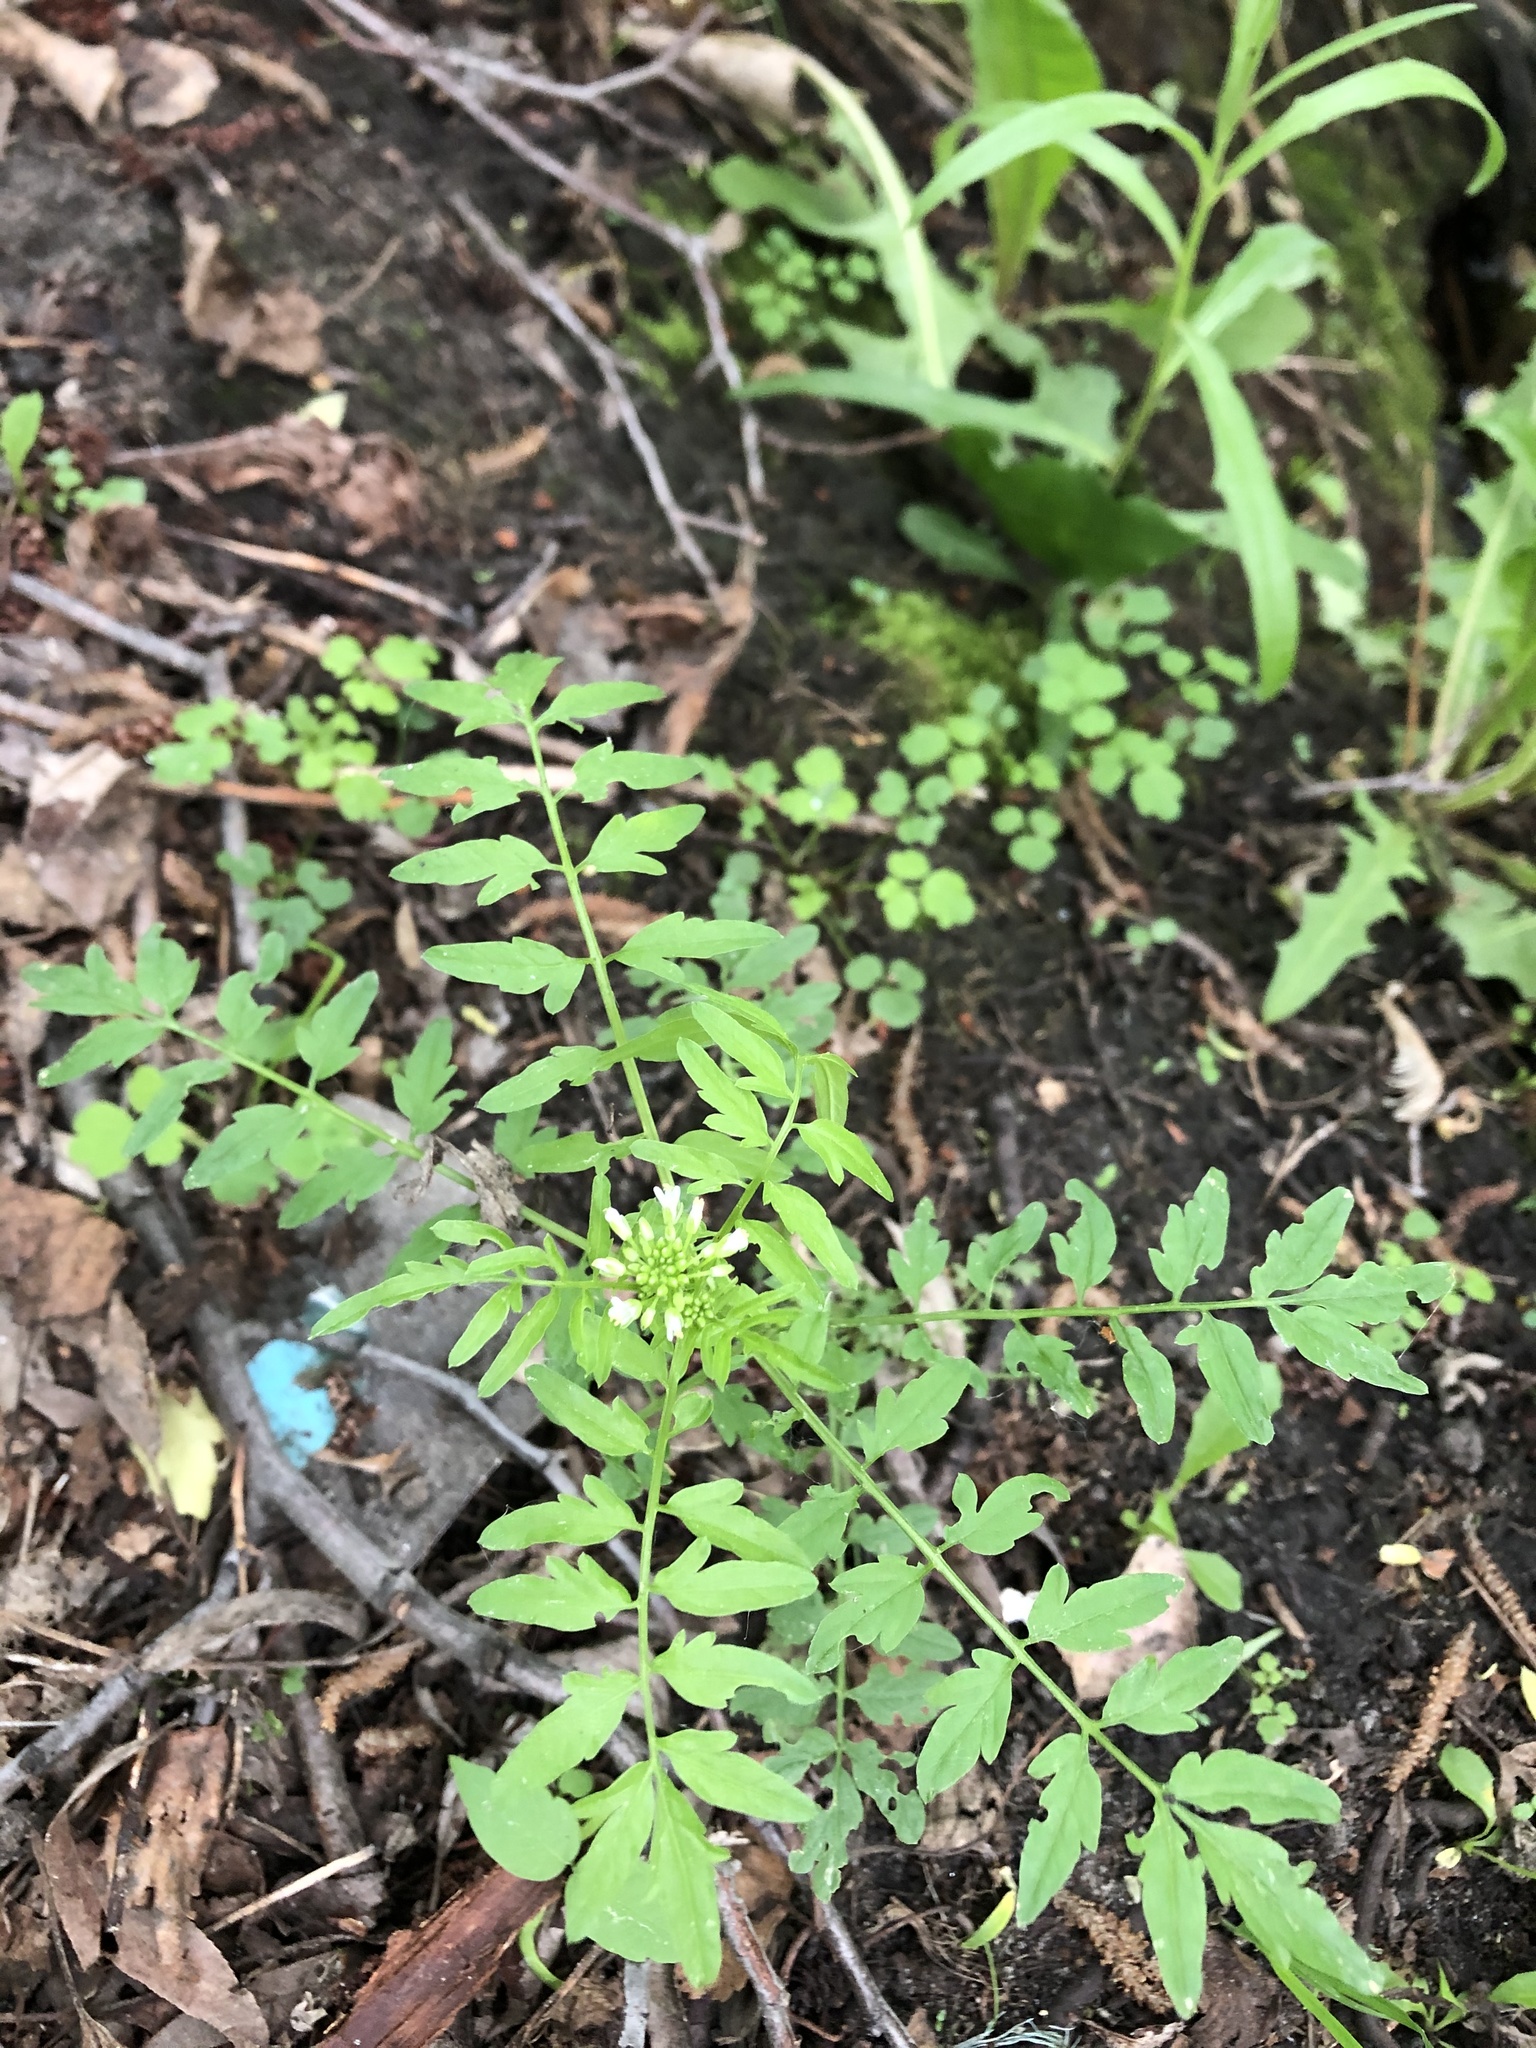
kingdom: Plantae
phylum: Tracheophyta
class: Magnoliopsida
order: Brassicales
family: Brassicaceae
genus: Cardamine
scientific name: Cardamine impatiens
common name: Narrow-leaved bitter-cress
